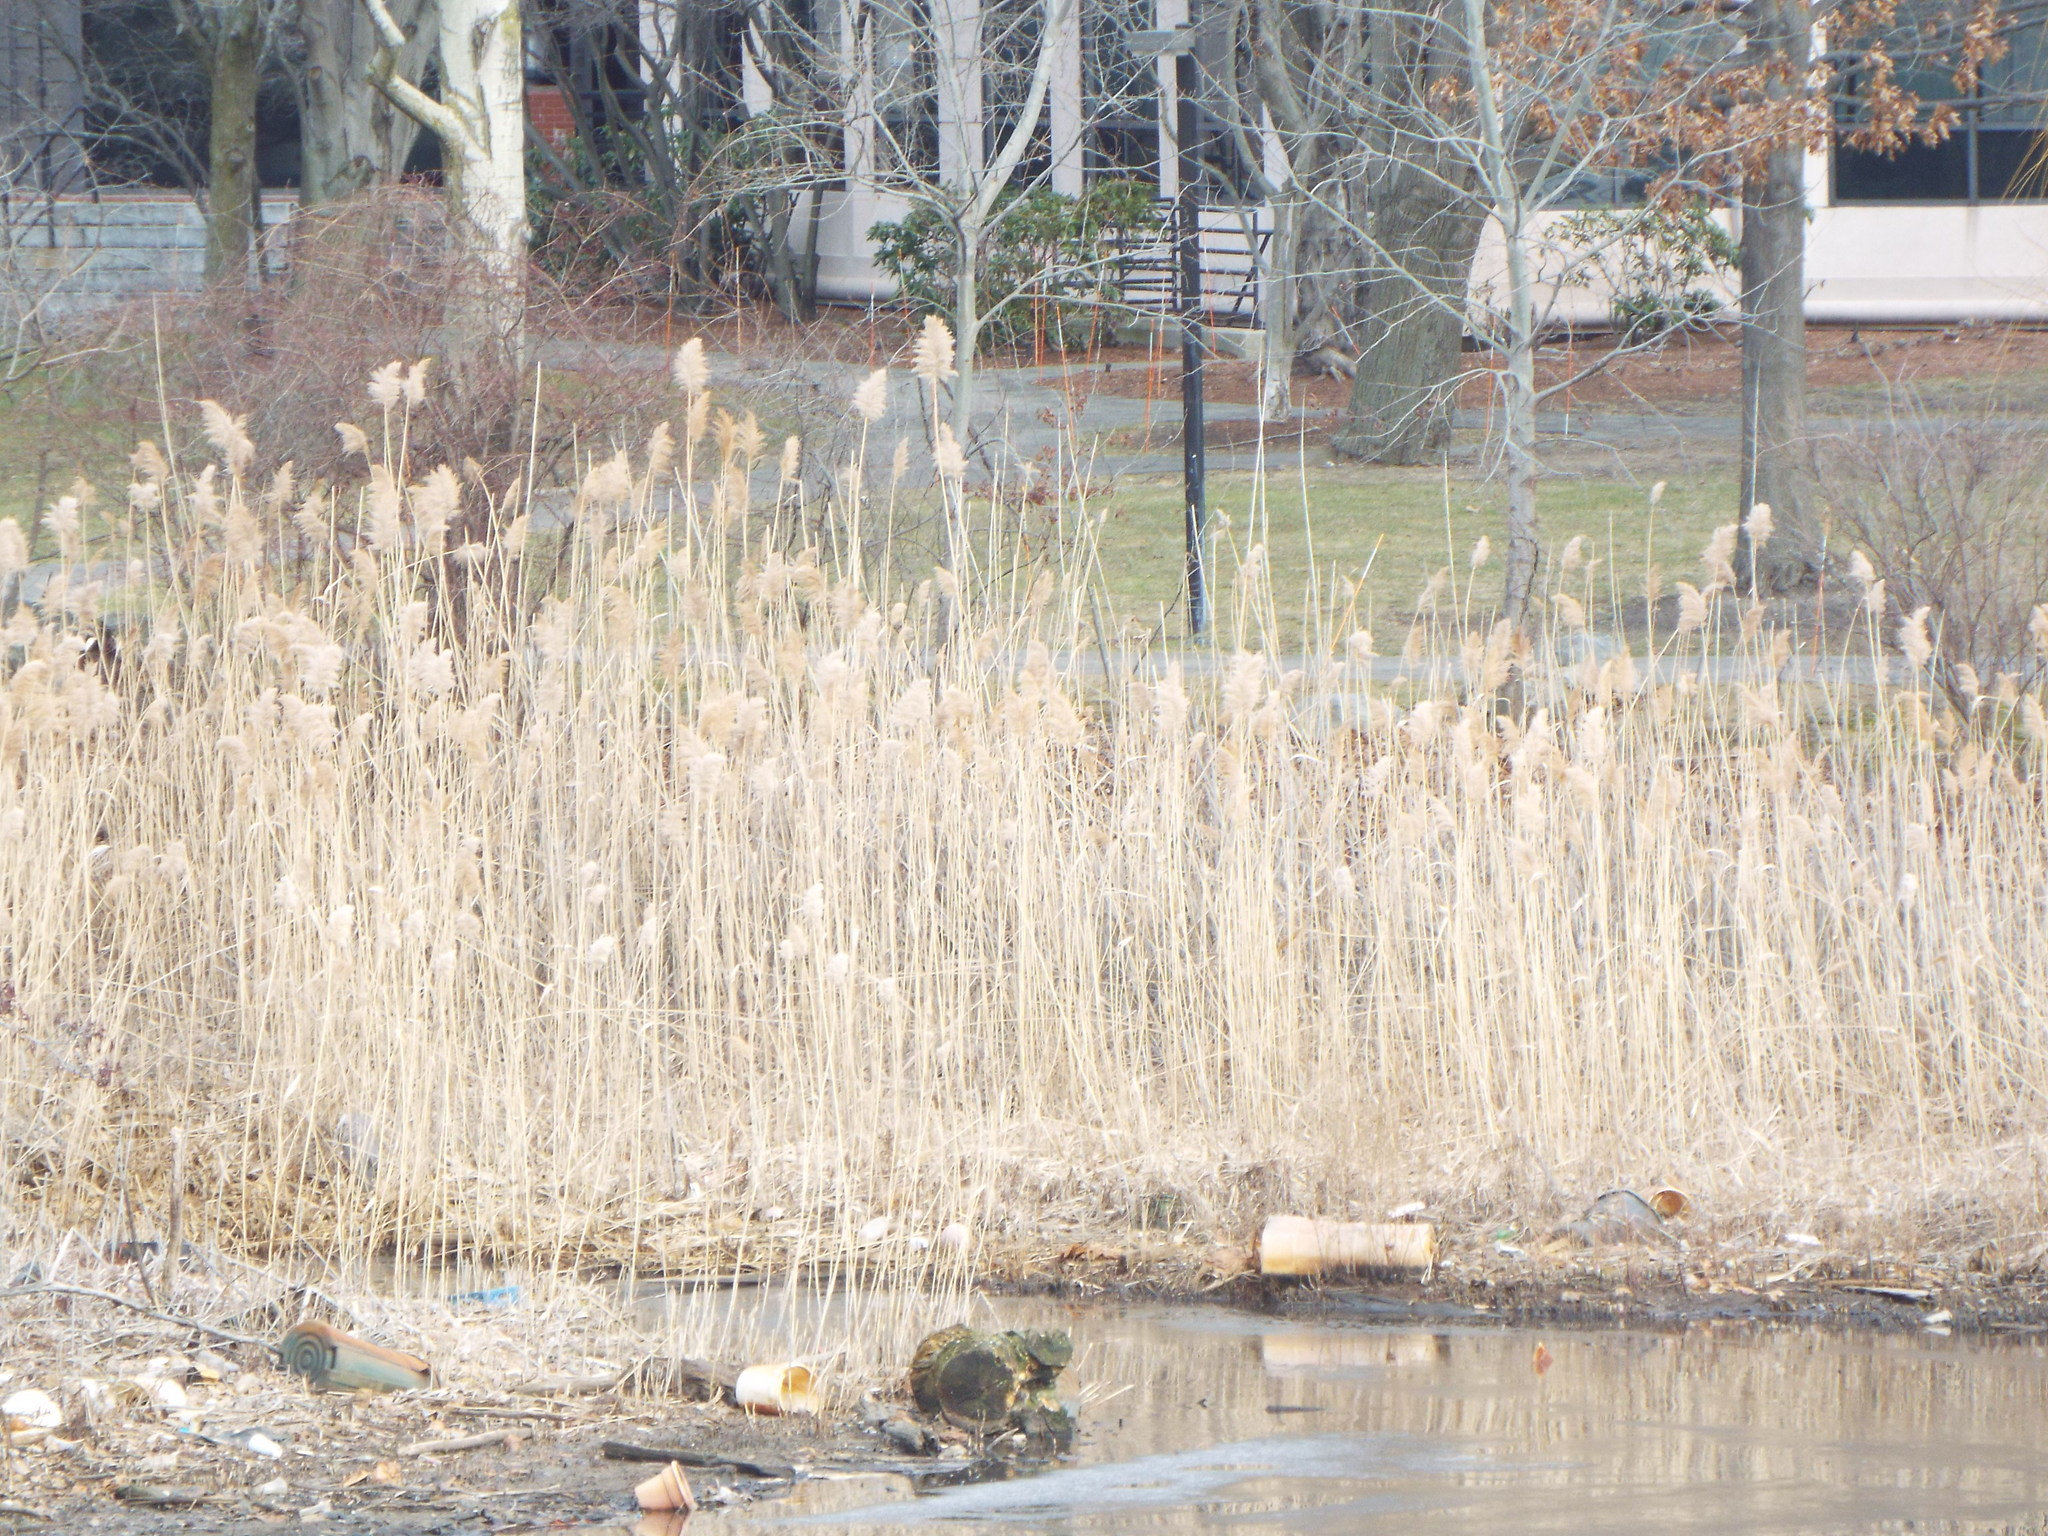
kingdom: Plantae
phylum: Tracheophyta
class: Liliopsida
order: Poales
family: Poaceae
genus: Phragmites
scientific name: Phragmites australis
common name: Common reed
